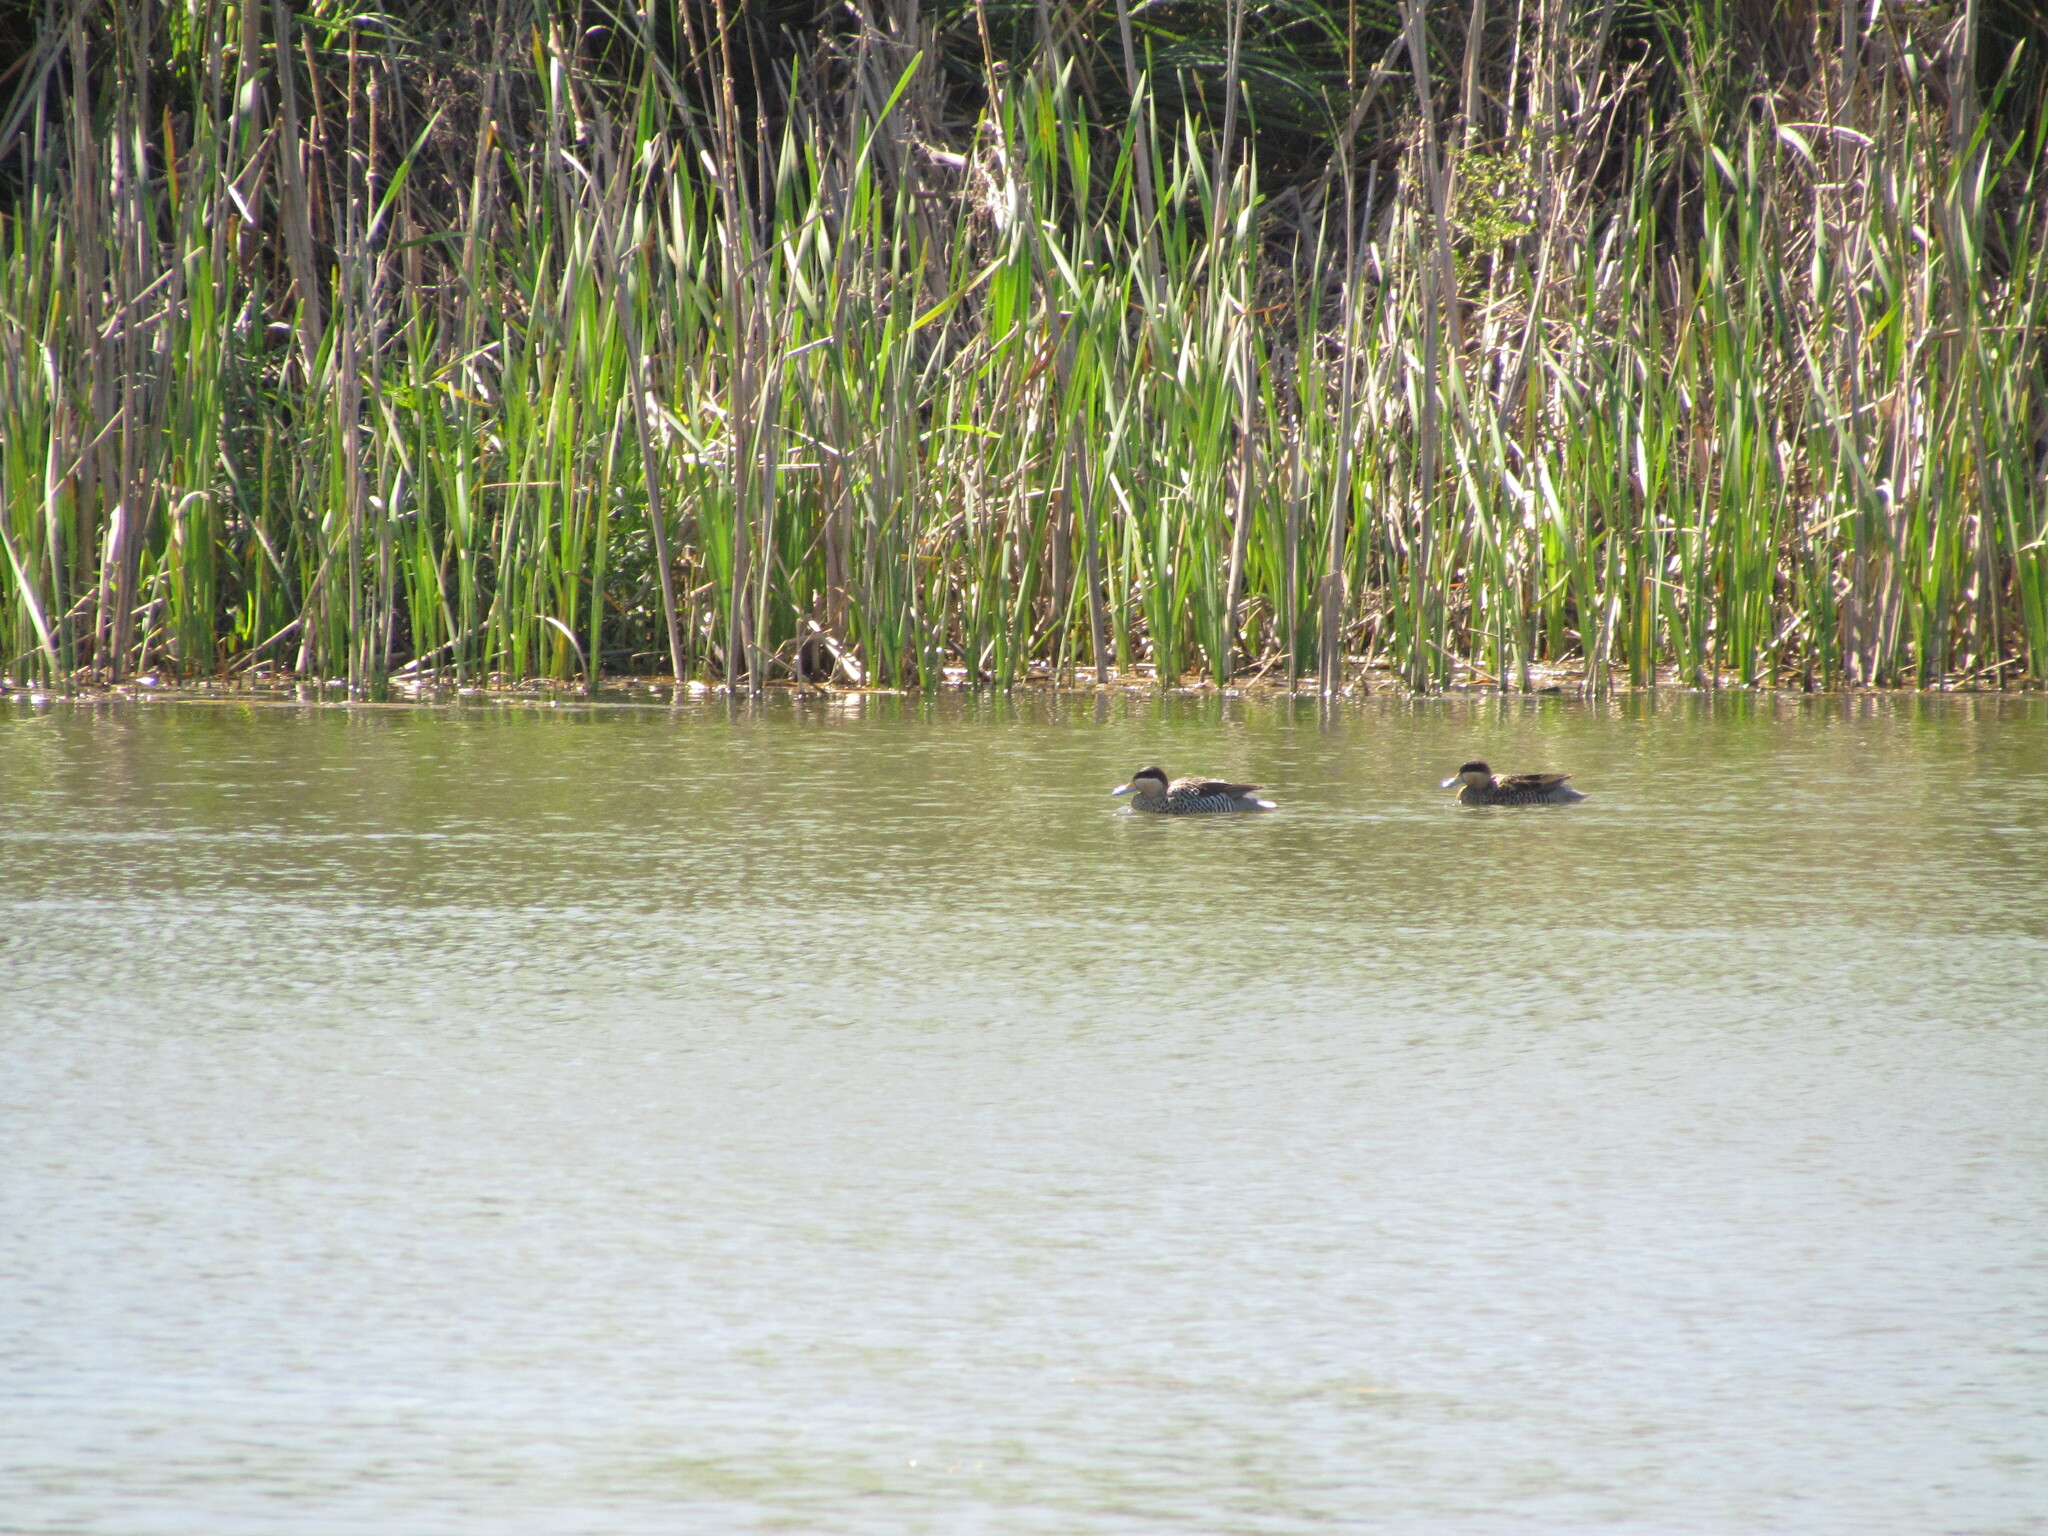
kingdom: Animalia
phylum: Chordata
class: Aves
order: Anseriformes
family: Anatidae
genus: Spatula
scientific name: Spatula versicolor
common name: Silver teal
